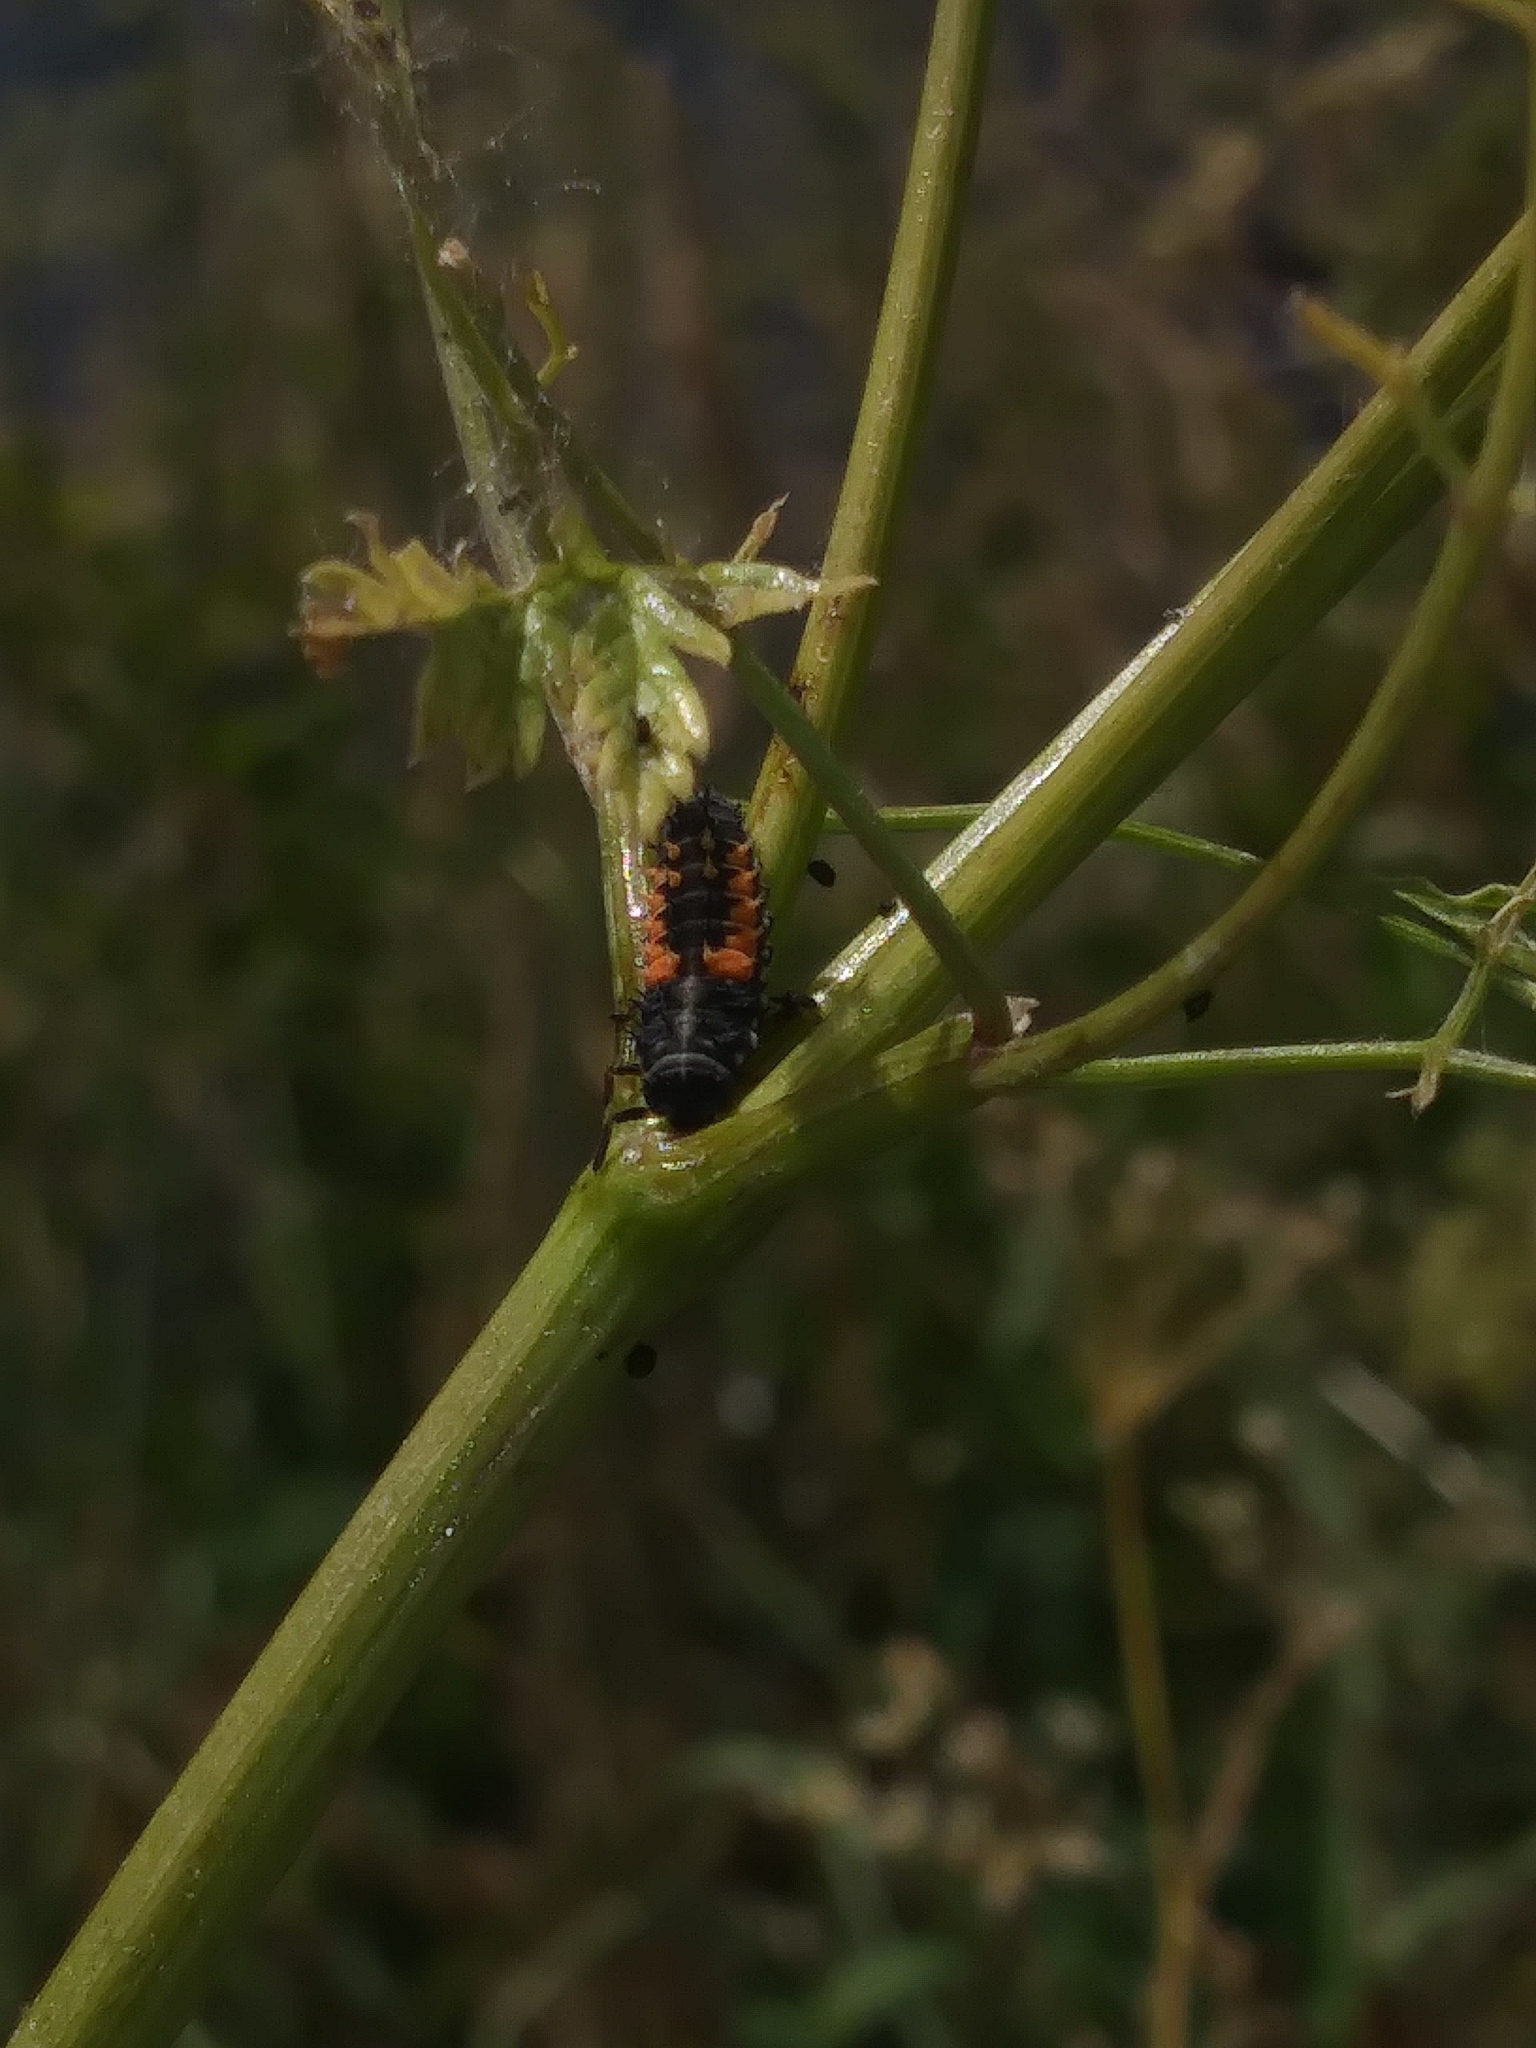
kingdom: Animalia
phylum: Arthropoda
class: Insecta
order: Coleoptera
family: Coccinellidae
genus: Harmonia
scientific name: Harmonia axyridis
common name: Harlequin ladybird
